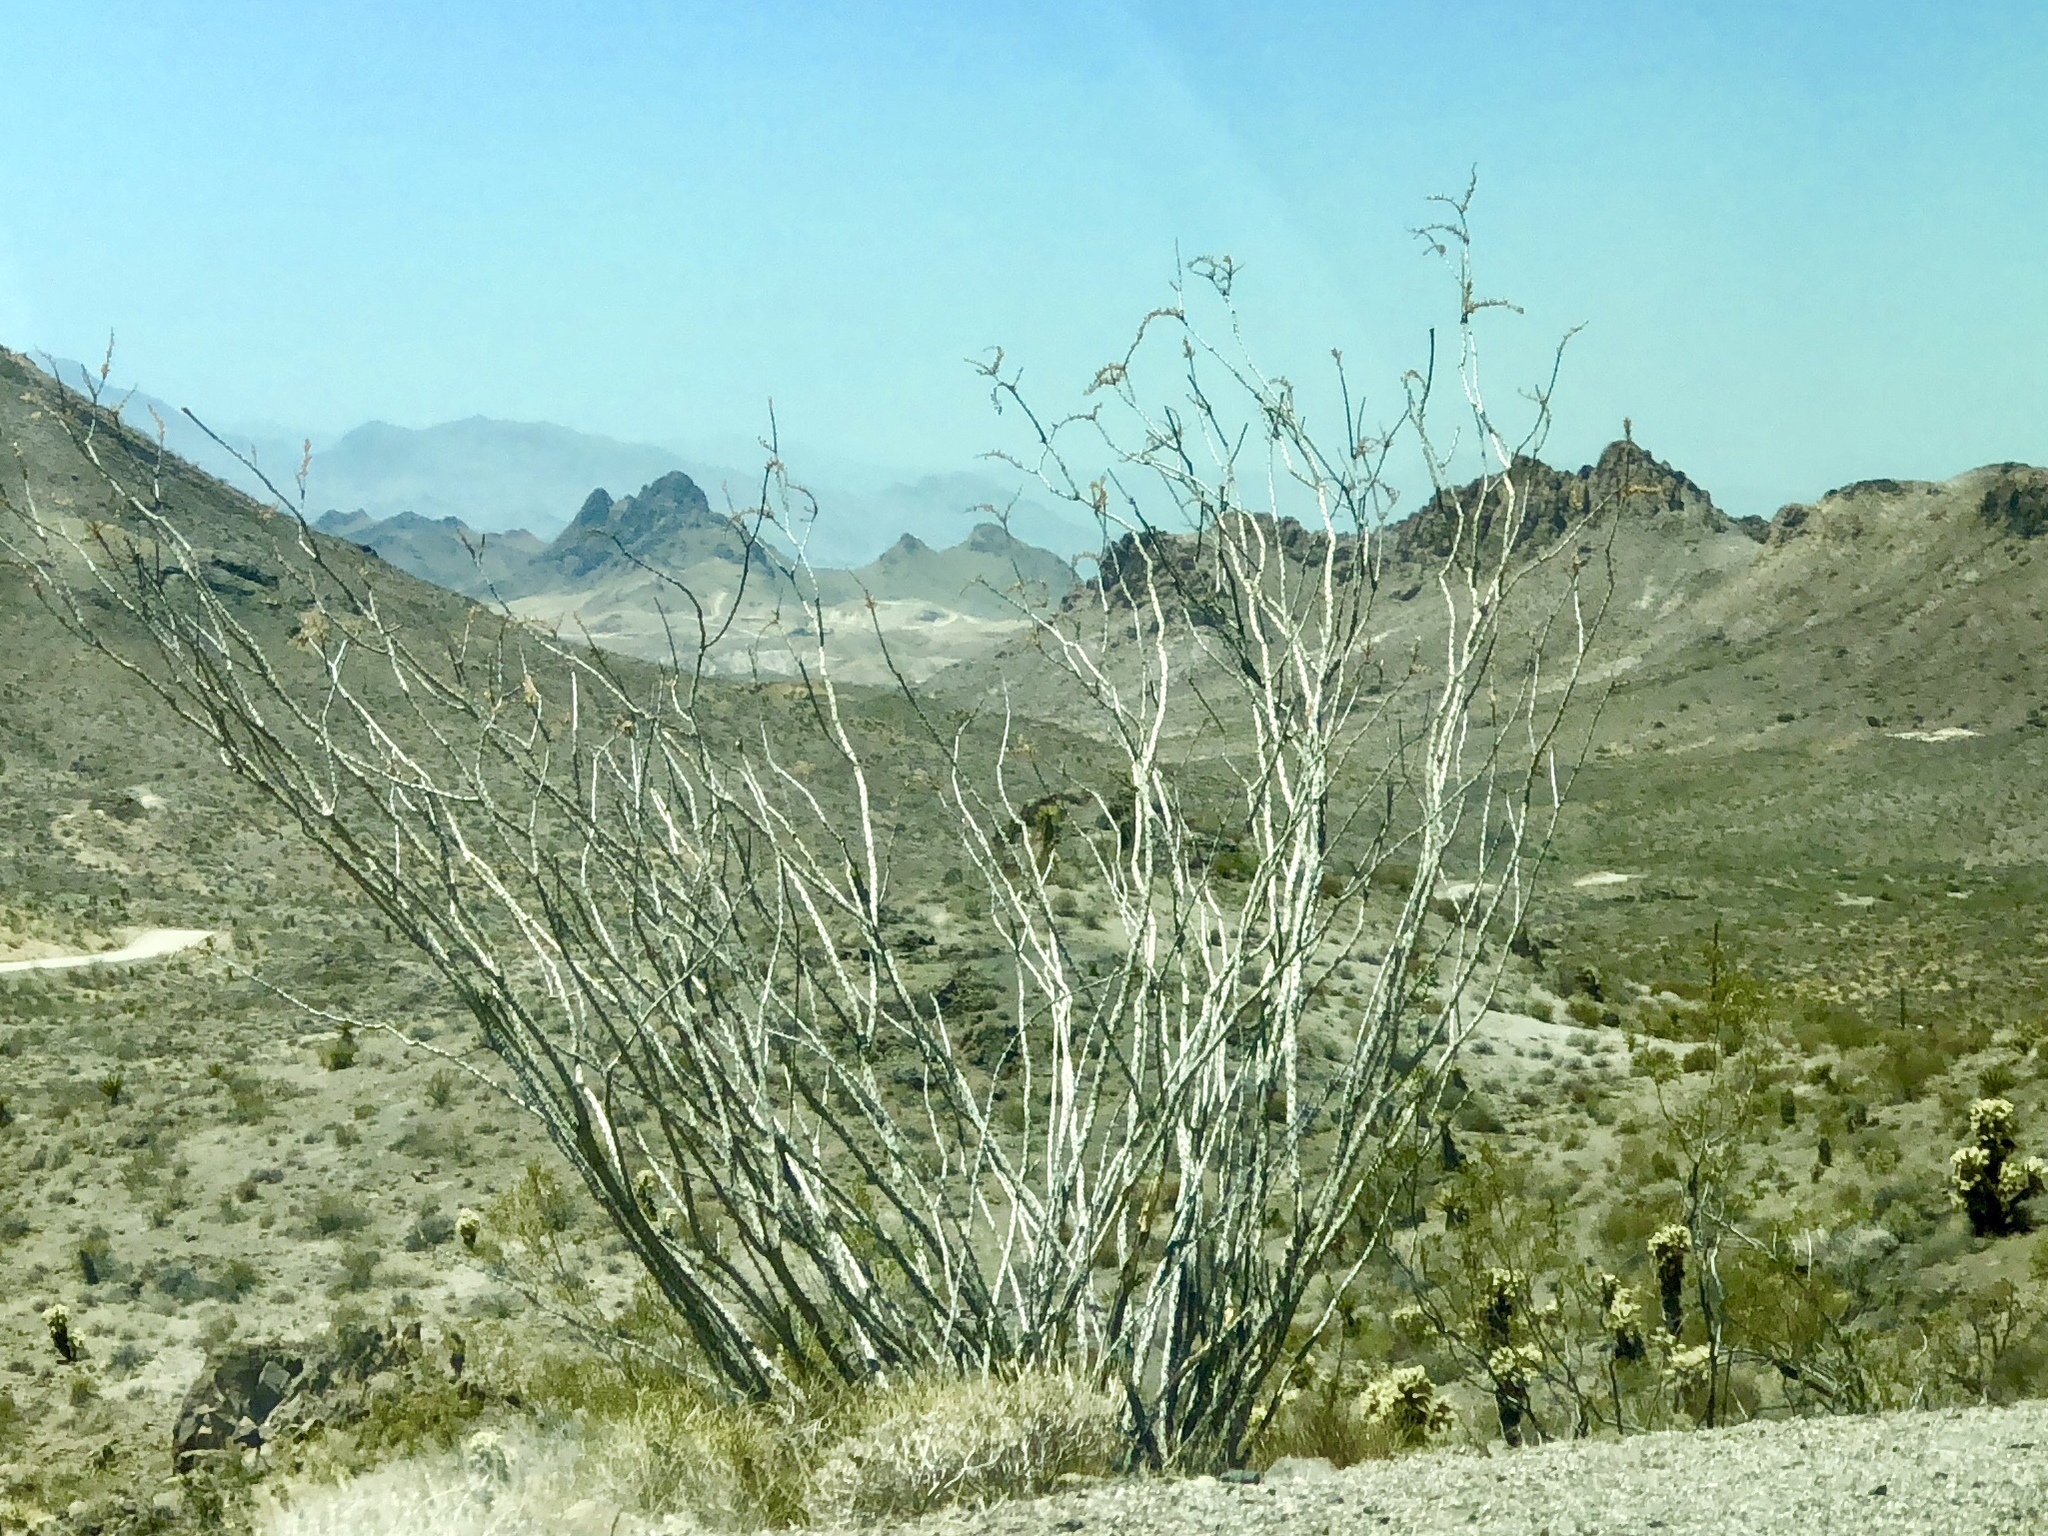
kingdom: Plantae
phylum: Tracheophyta
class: Magnoliopsida
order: Ericales
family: Fouquieriaceae
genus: Fouquieria
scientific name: Fouquieria splendens
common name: Vine-cactus
